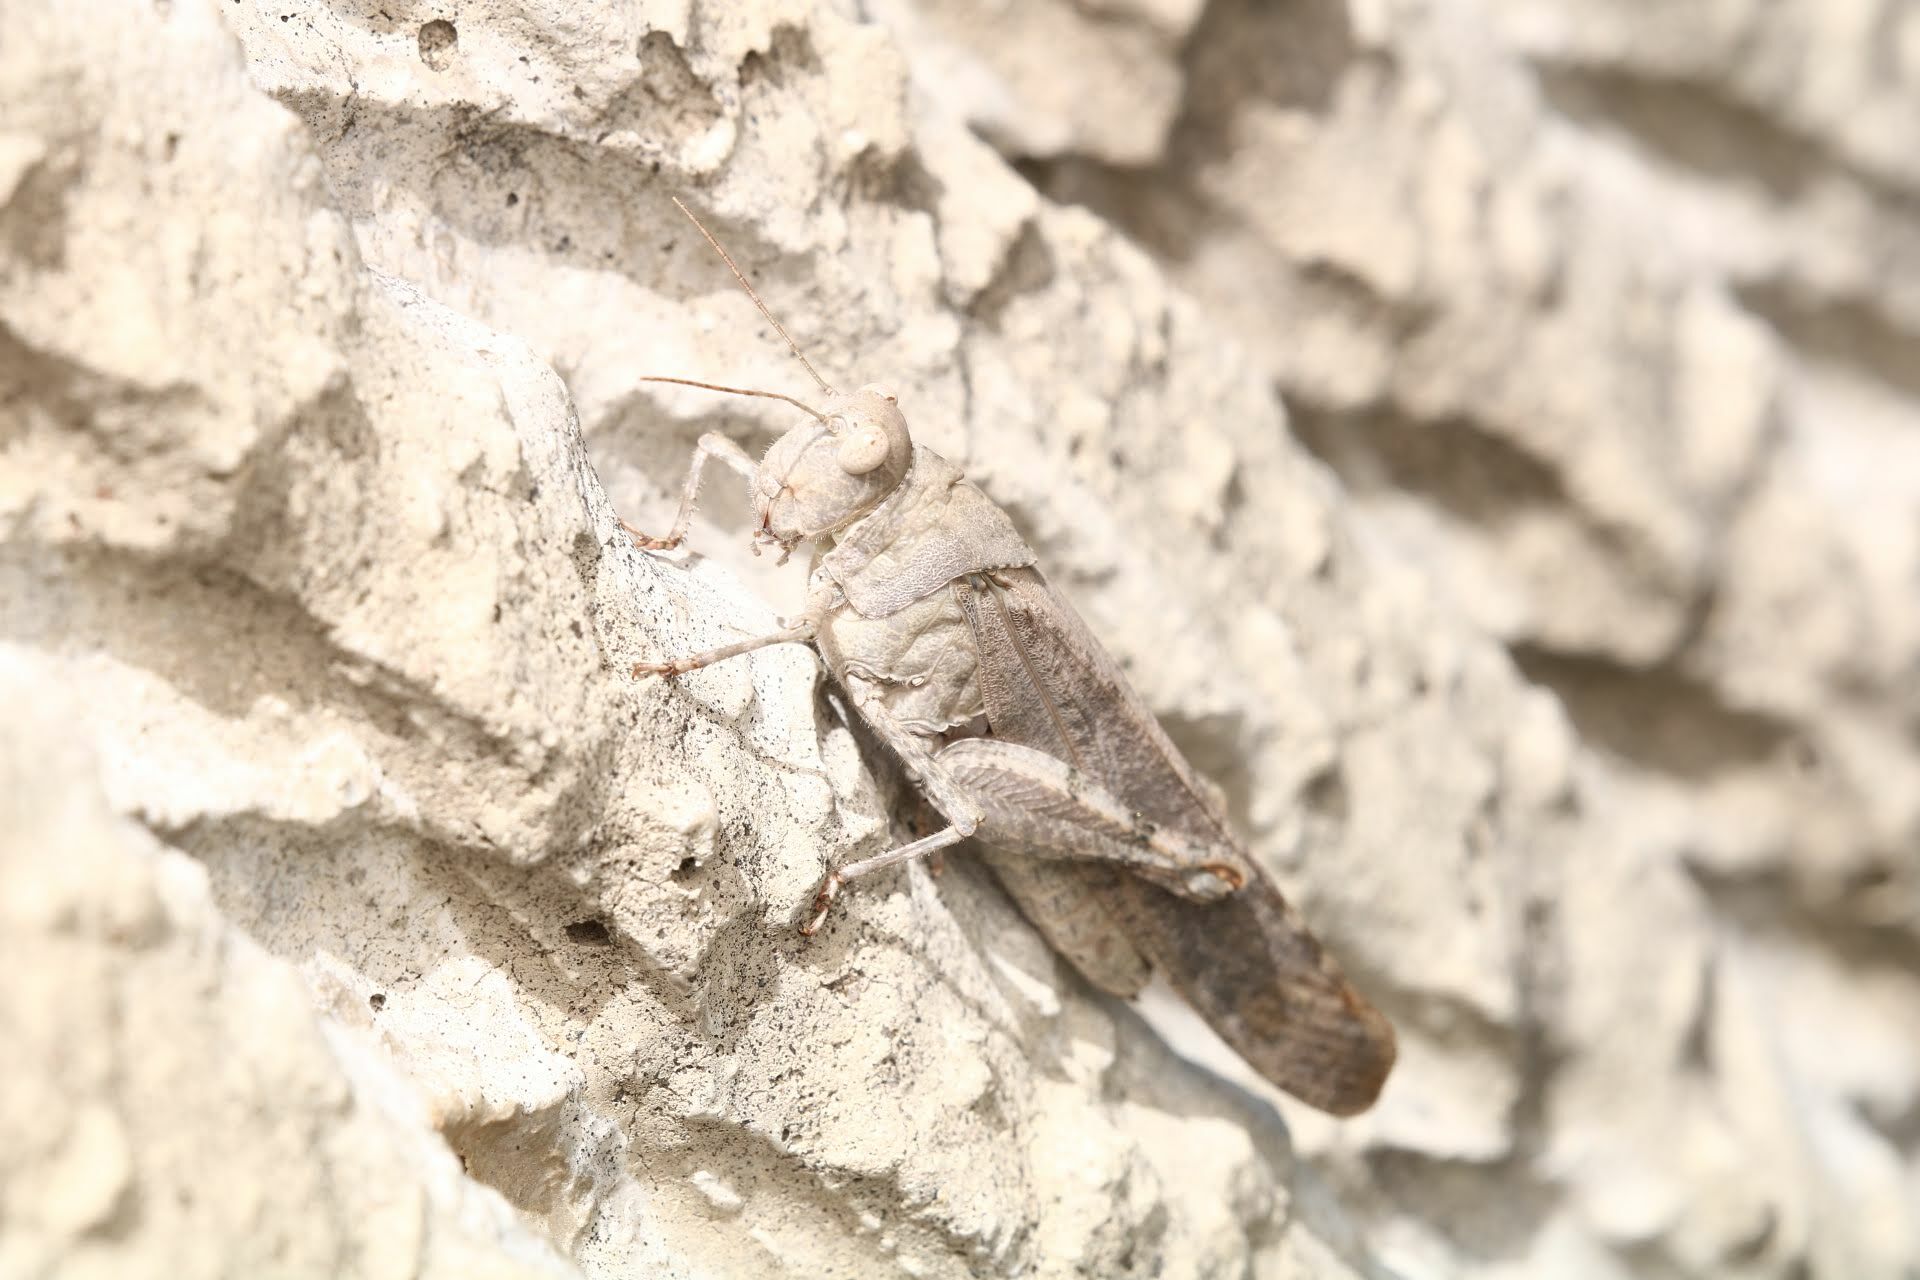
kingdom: Animalia
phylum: Arthropoda
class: Insecta
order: Orthoptera
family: Acrididae
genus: Dissosteira
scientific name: Dissosteira carolina
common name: Carolina grasshopper
